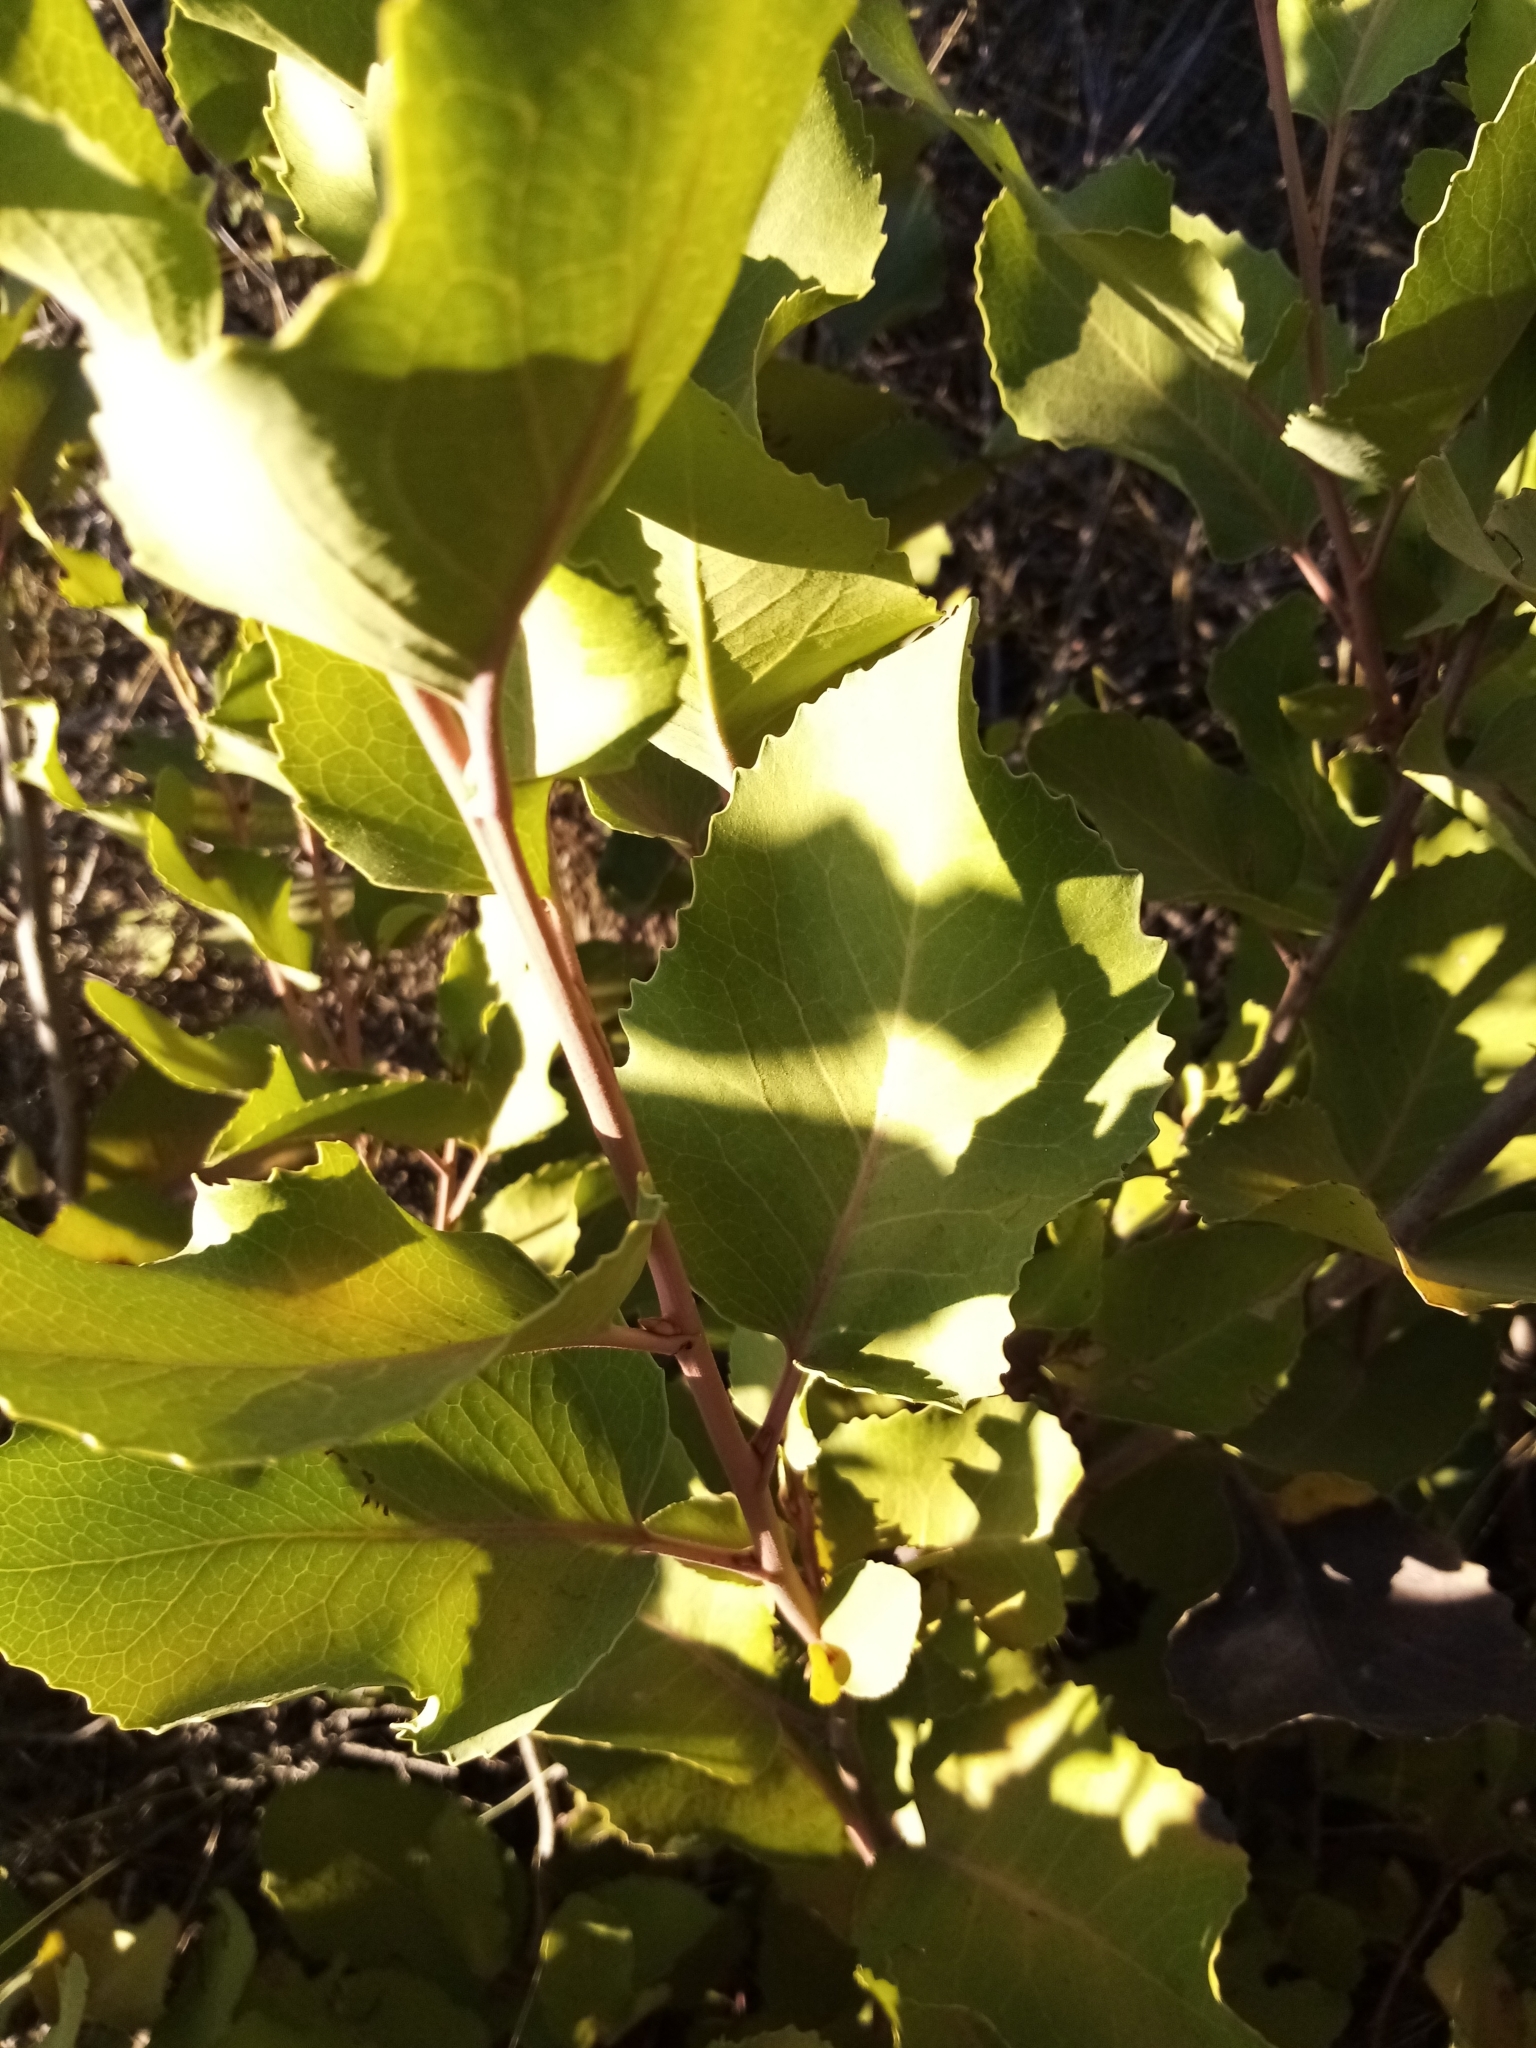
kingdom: Plantae
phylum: Tracheophyta
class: Magnoliopsida
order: Proteales
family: Proteaceae
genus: Lomatia
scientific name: Lomatia hirsuta
